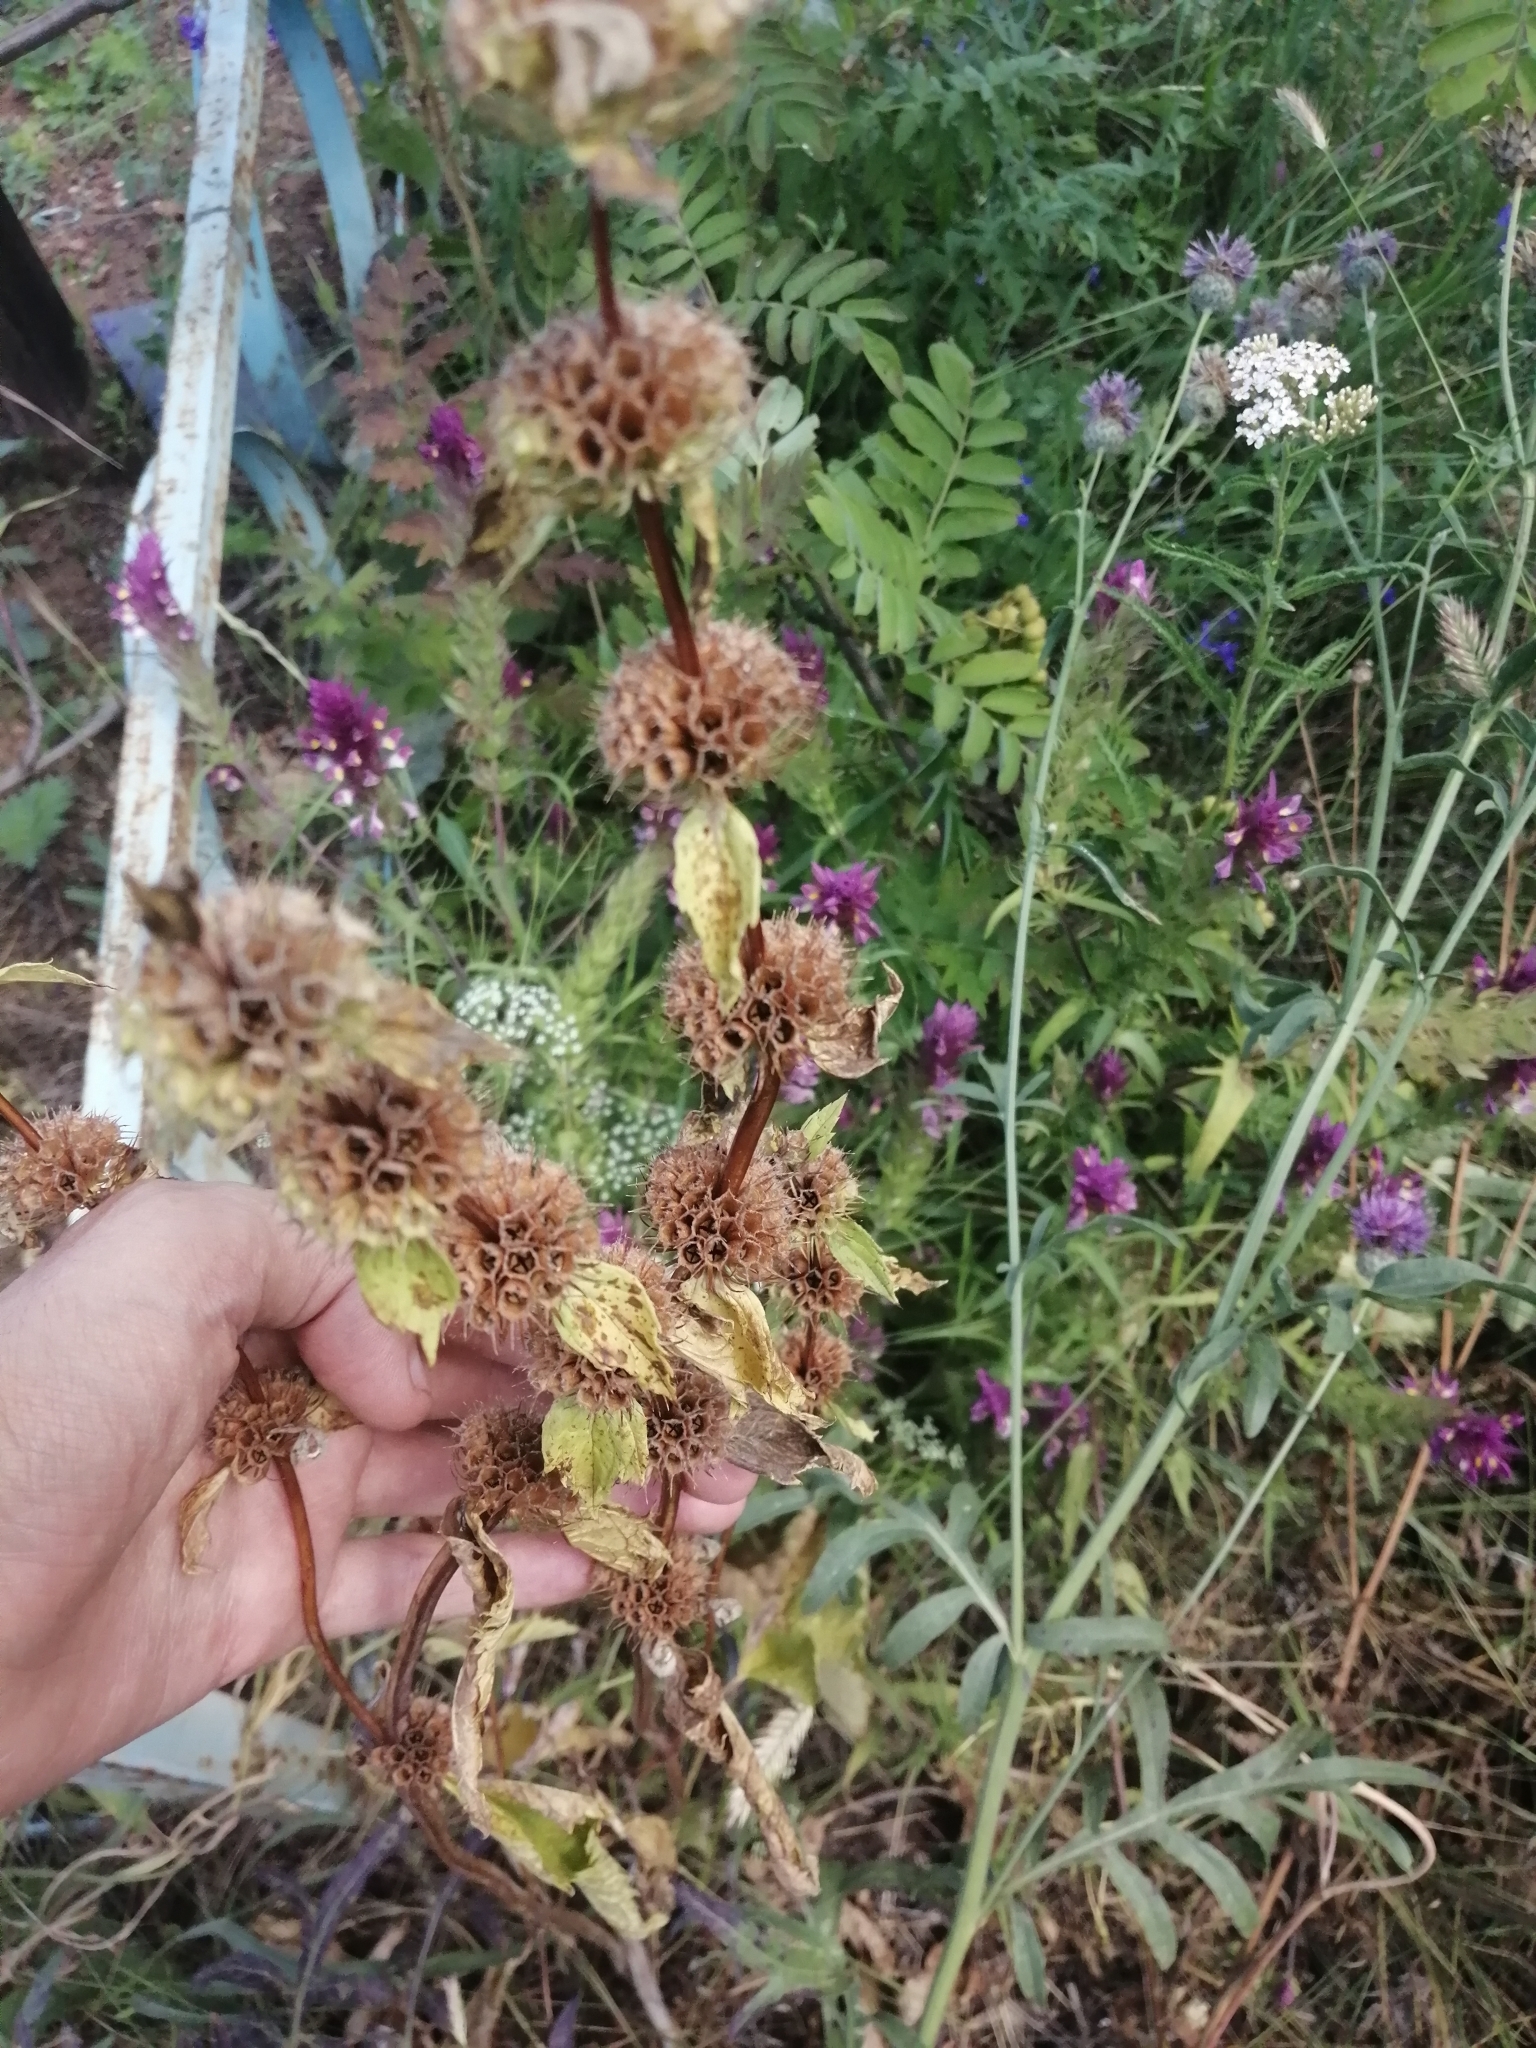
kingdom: Plantae
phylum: Tracheophyta
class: Magnoliopsida
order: Lamiales
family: Lamiaceae
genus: Phlomoides
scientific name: Phlomoides tuberosa
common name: Tuberous jerusalem sage
